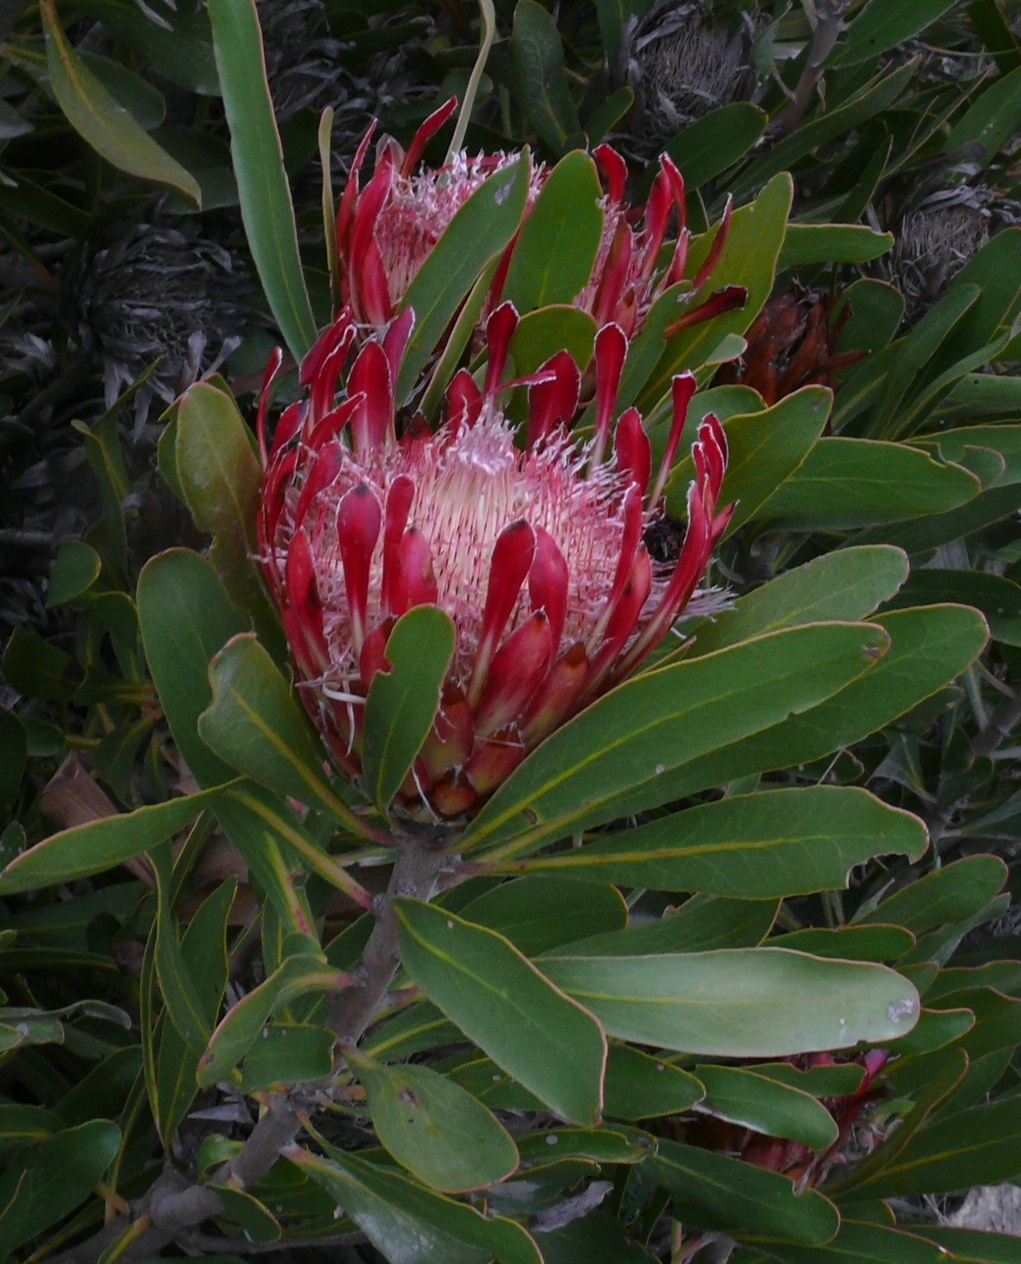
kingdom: Plantae
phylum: Tracheophyta
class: Magnoliopsida
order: Proteales
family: Proteaceae
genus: Protea
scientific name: Protea susannae
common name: Foetid-leaf sugarbush
